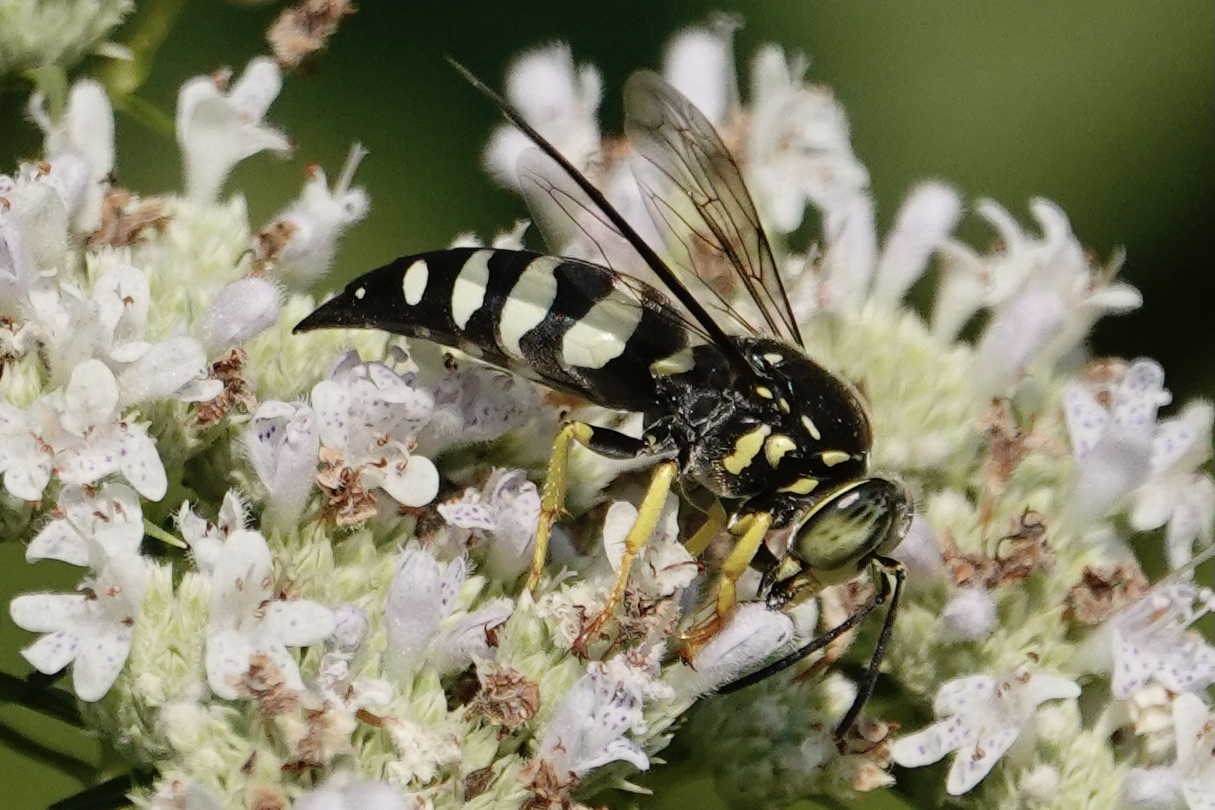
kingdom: Animalia
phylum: Arthropoda
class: Insecta
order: Hymenoptera
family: Crabronidae
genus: Bicyrtes
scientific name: Bicyrtes quadrifasciatus
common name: Four-banded stink bug hunter wasp
